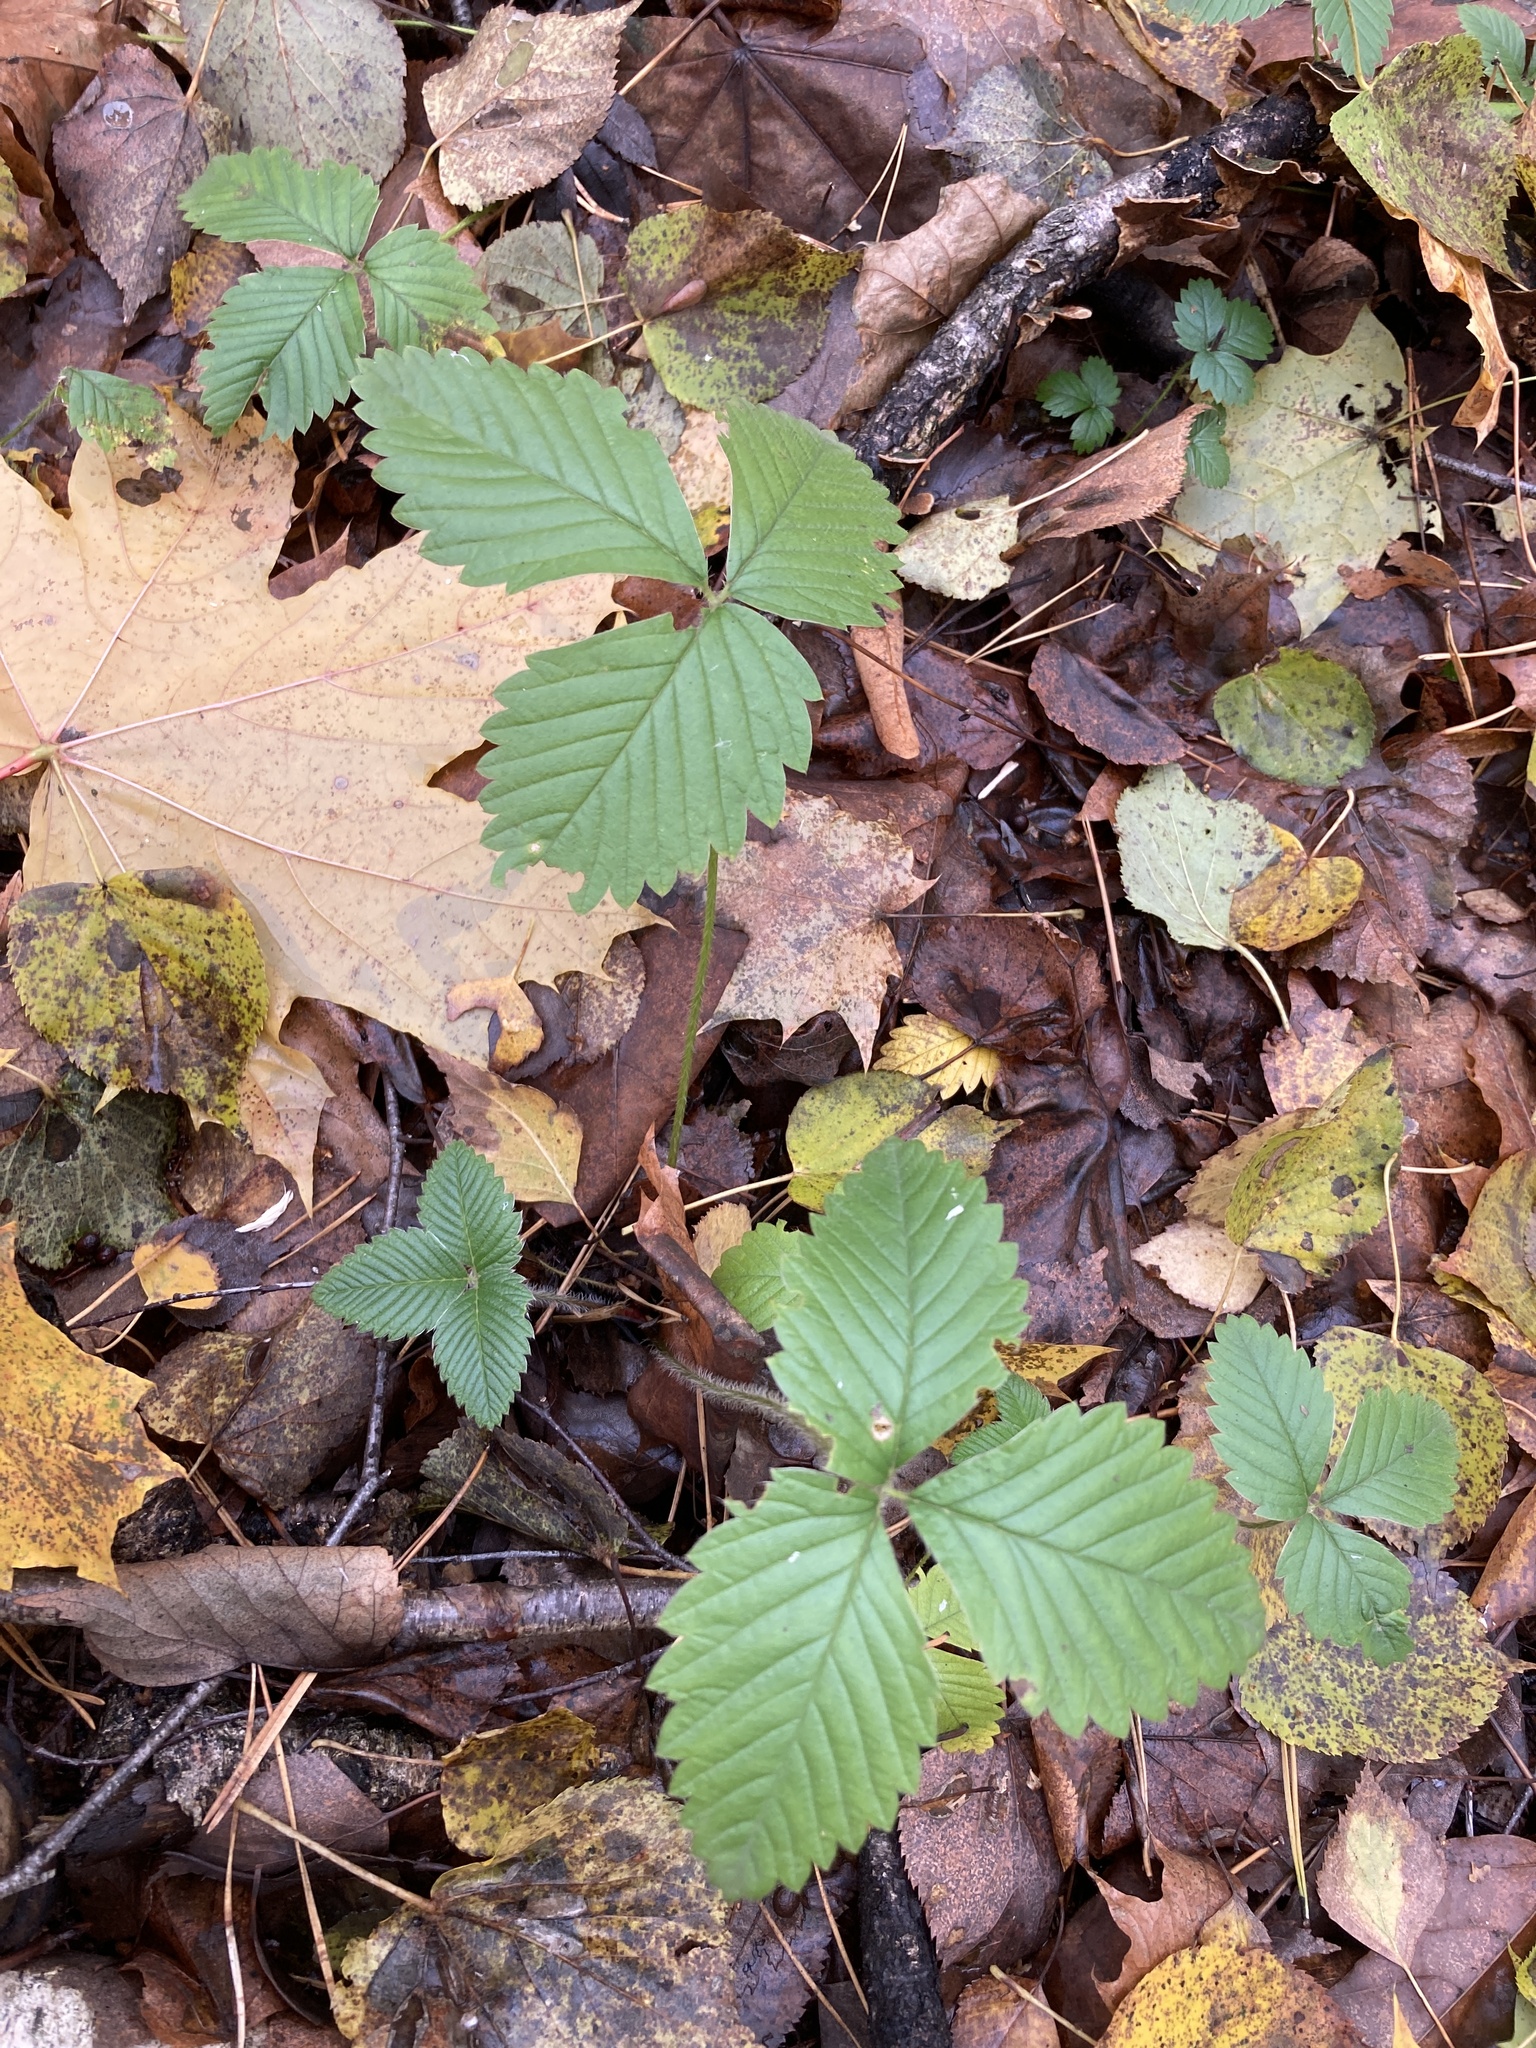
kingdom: Plantae
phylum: Tracheophyta
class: Magnoliopsida
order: Rosales
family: Rosaceae
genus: Fragaria
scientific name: Fragaria moschata
